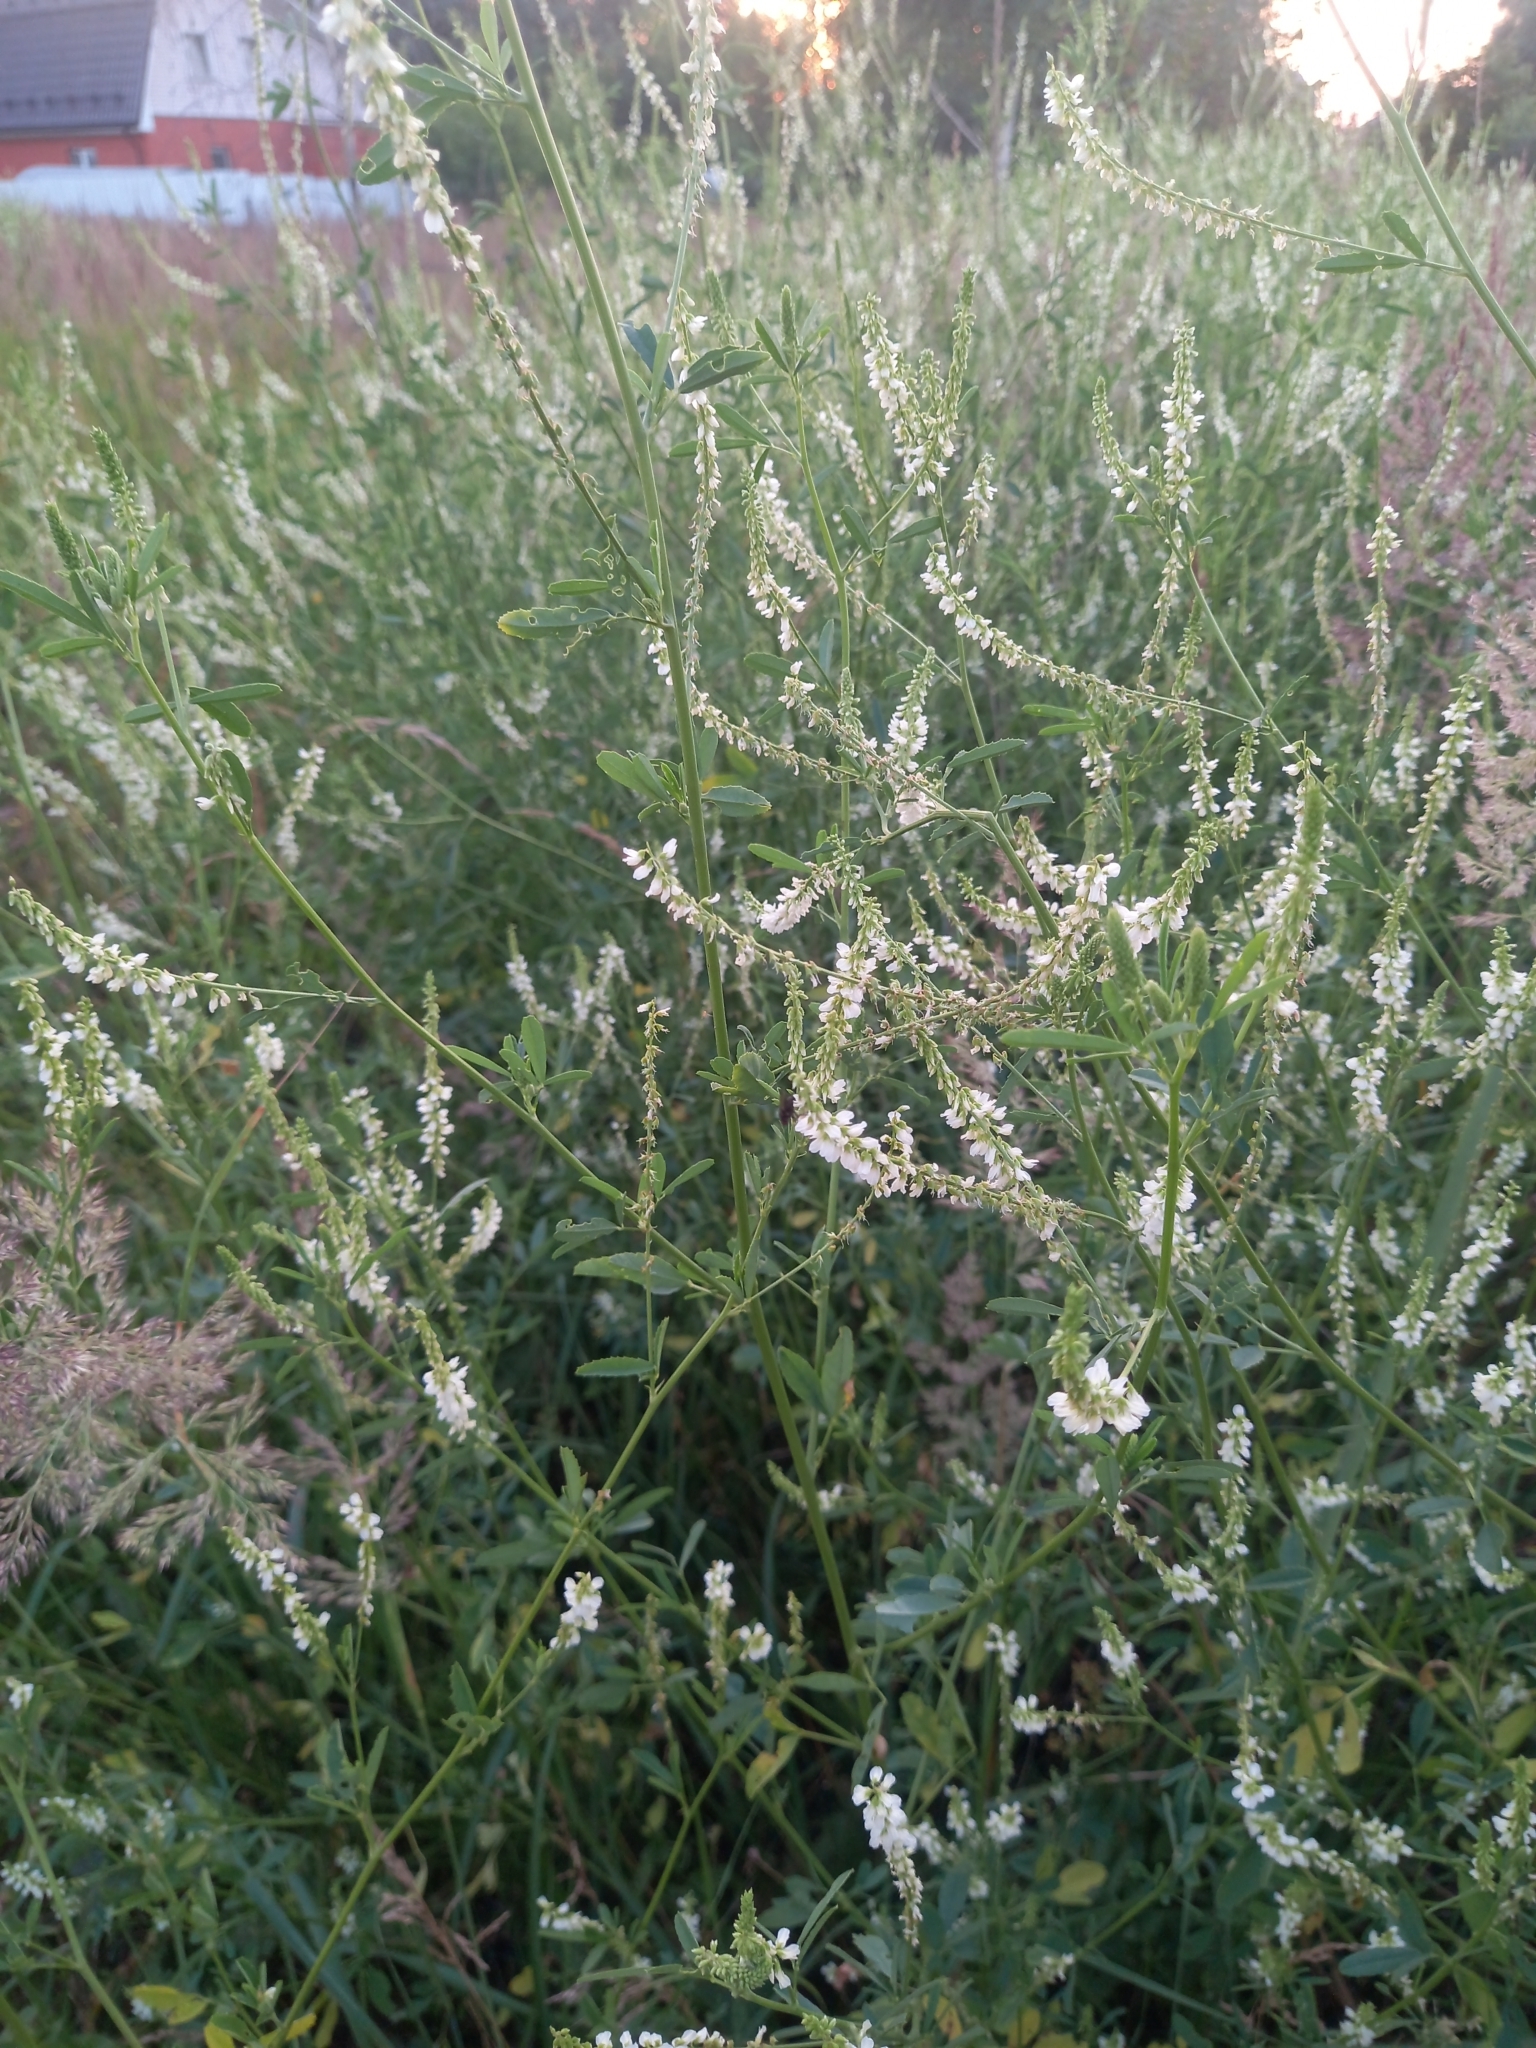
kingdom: Plantae
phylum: Tracheophyta
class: Magnoliopsida
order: Fabales
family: Fabaceae
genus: Melilotus
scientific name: Melilotus albus
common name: White melilot
